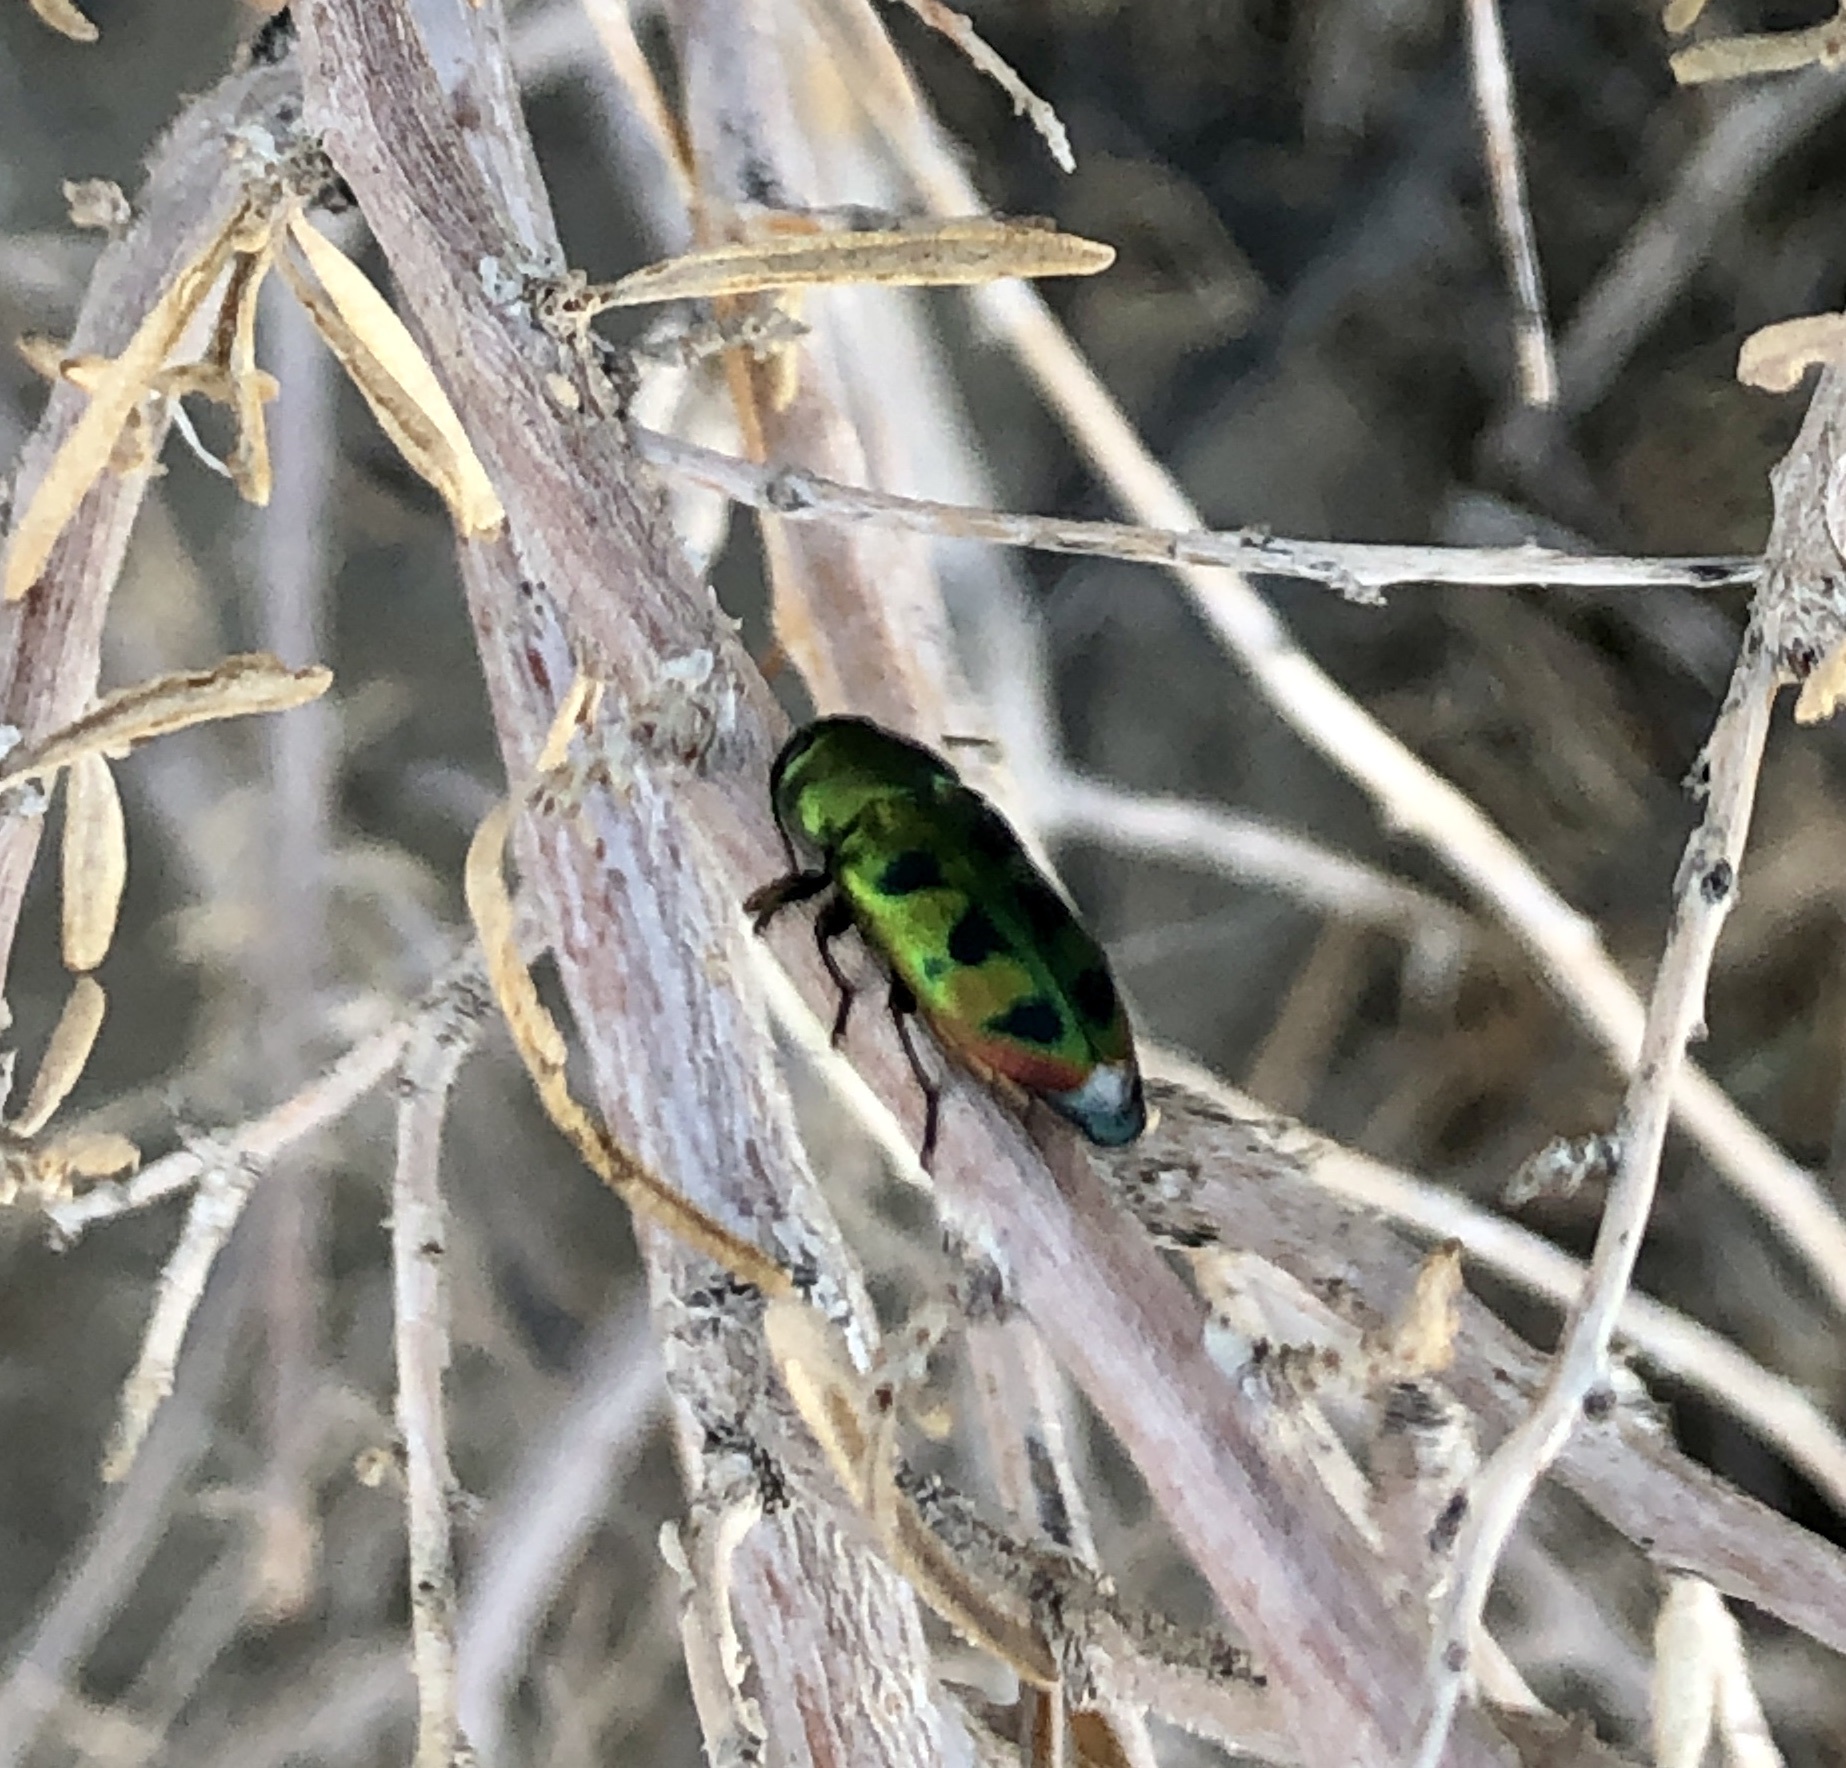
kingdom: Animalia
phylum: Arthropoda
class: Insecta
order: Coleoptera
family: Buprestidae
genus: Knowltonia
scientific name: Knowltonia calida
